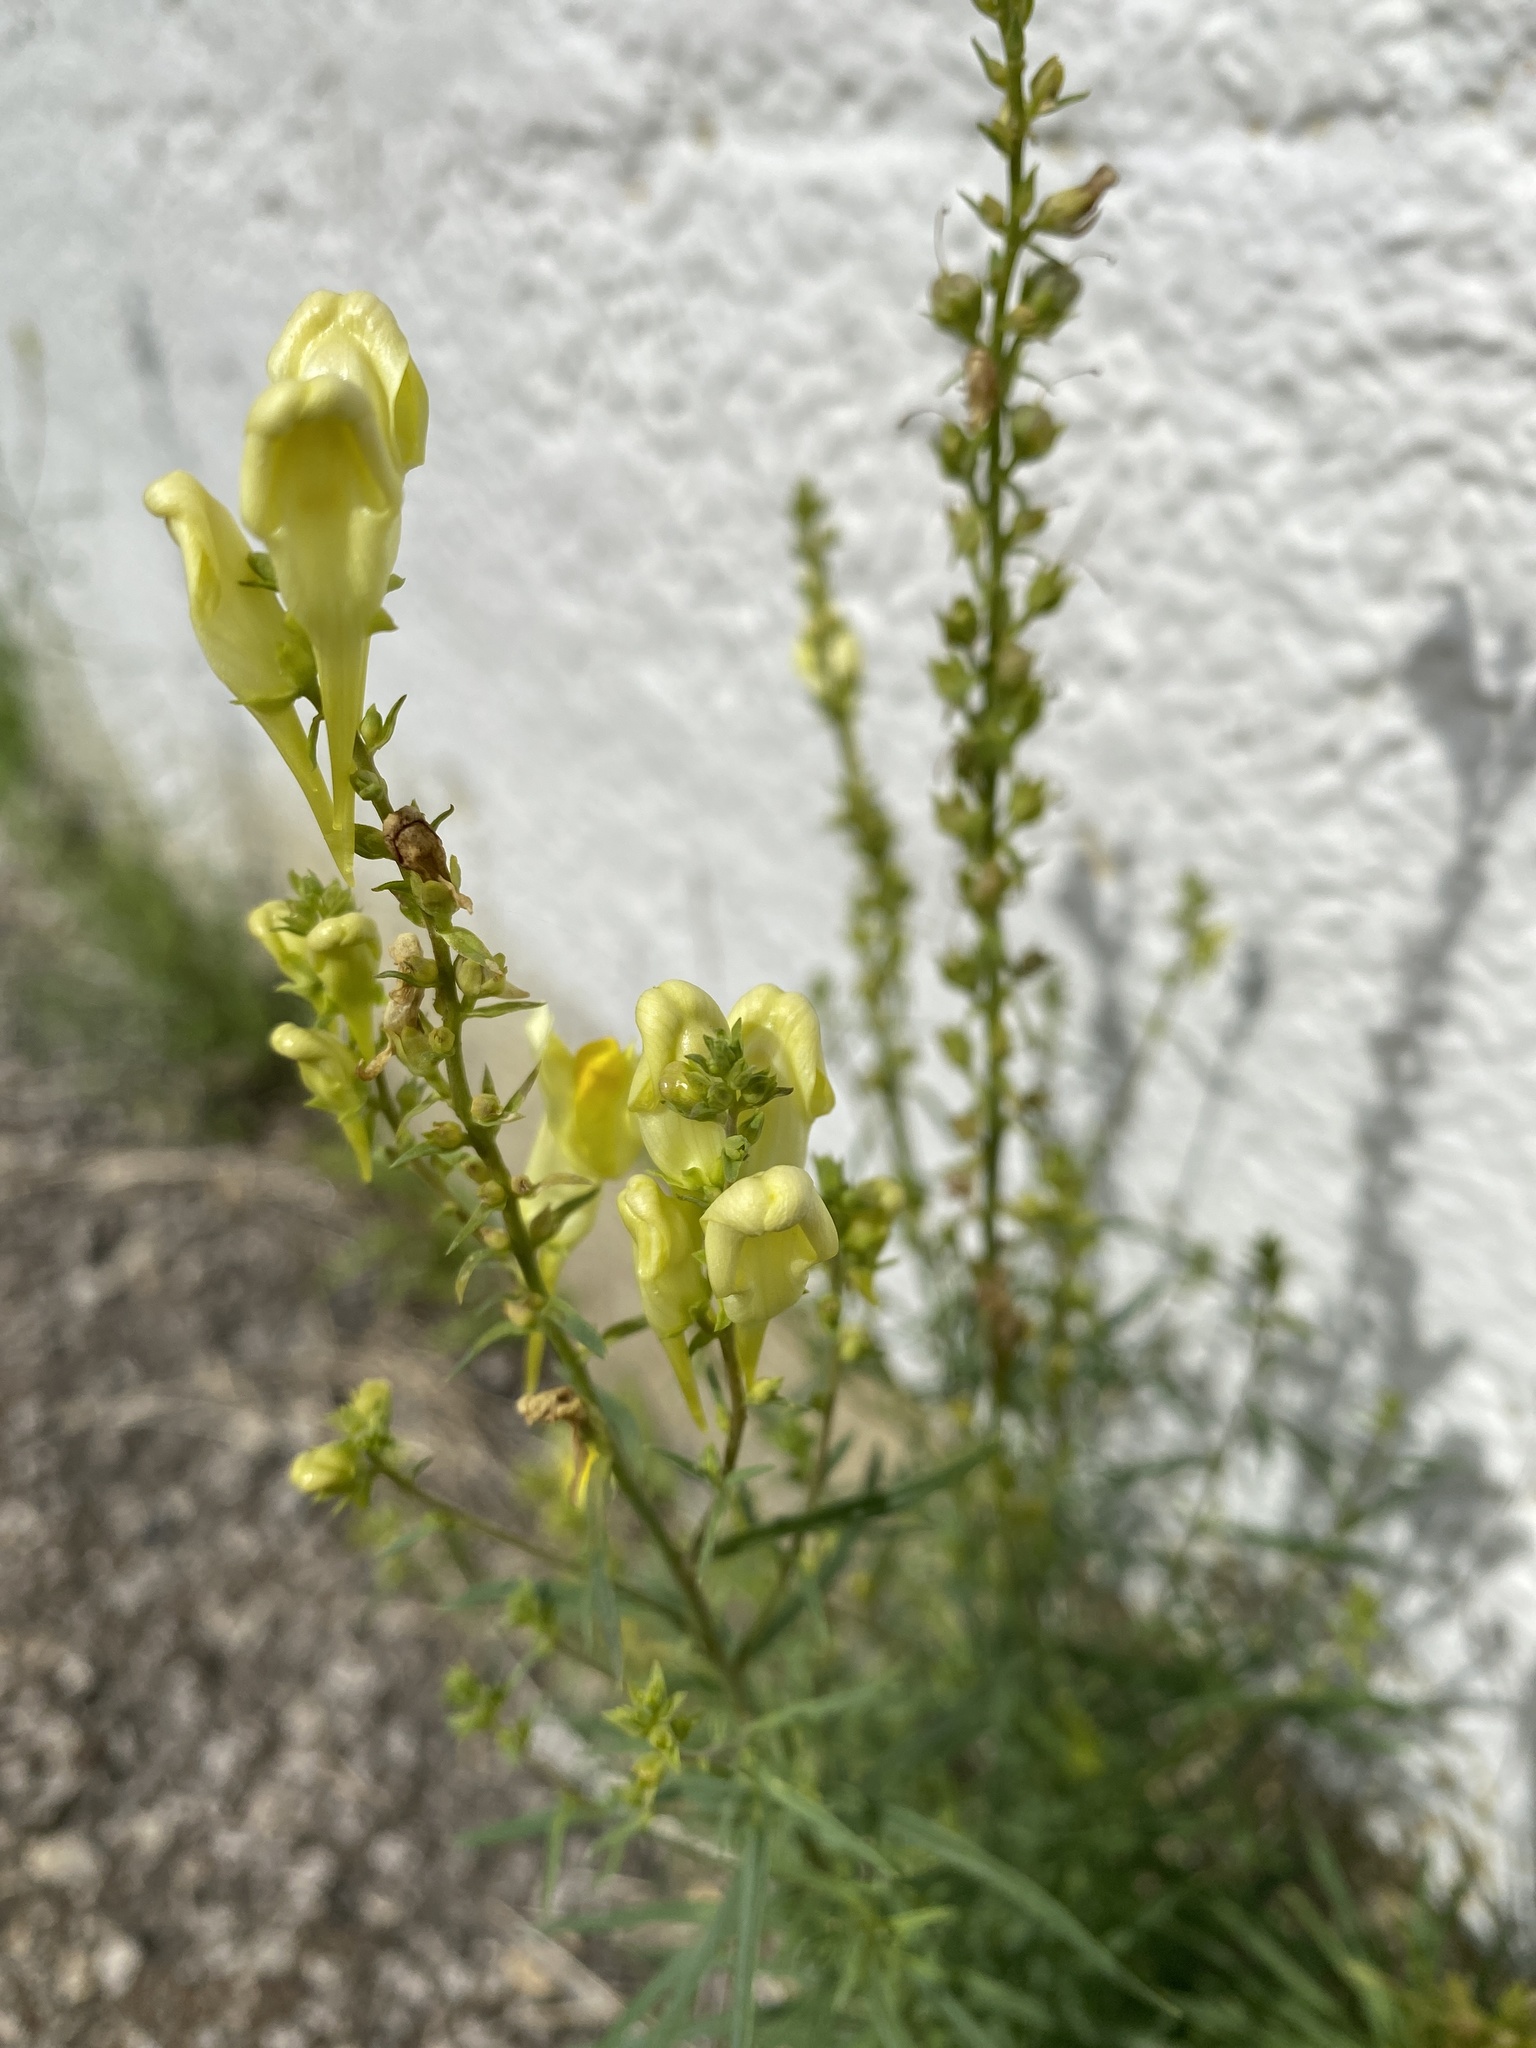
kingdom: Plantae
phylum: Tracheophyta
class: Magnoliopsida
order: Lamiales
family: Plantaginaceae
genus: Linaria
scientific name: Linaria vulgaris
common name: Butter and eggs
